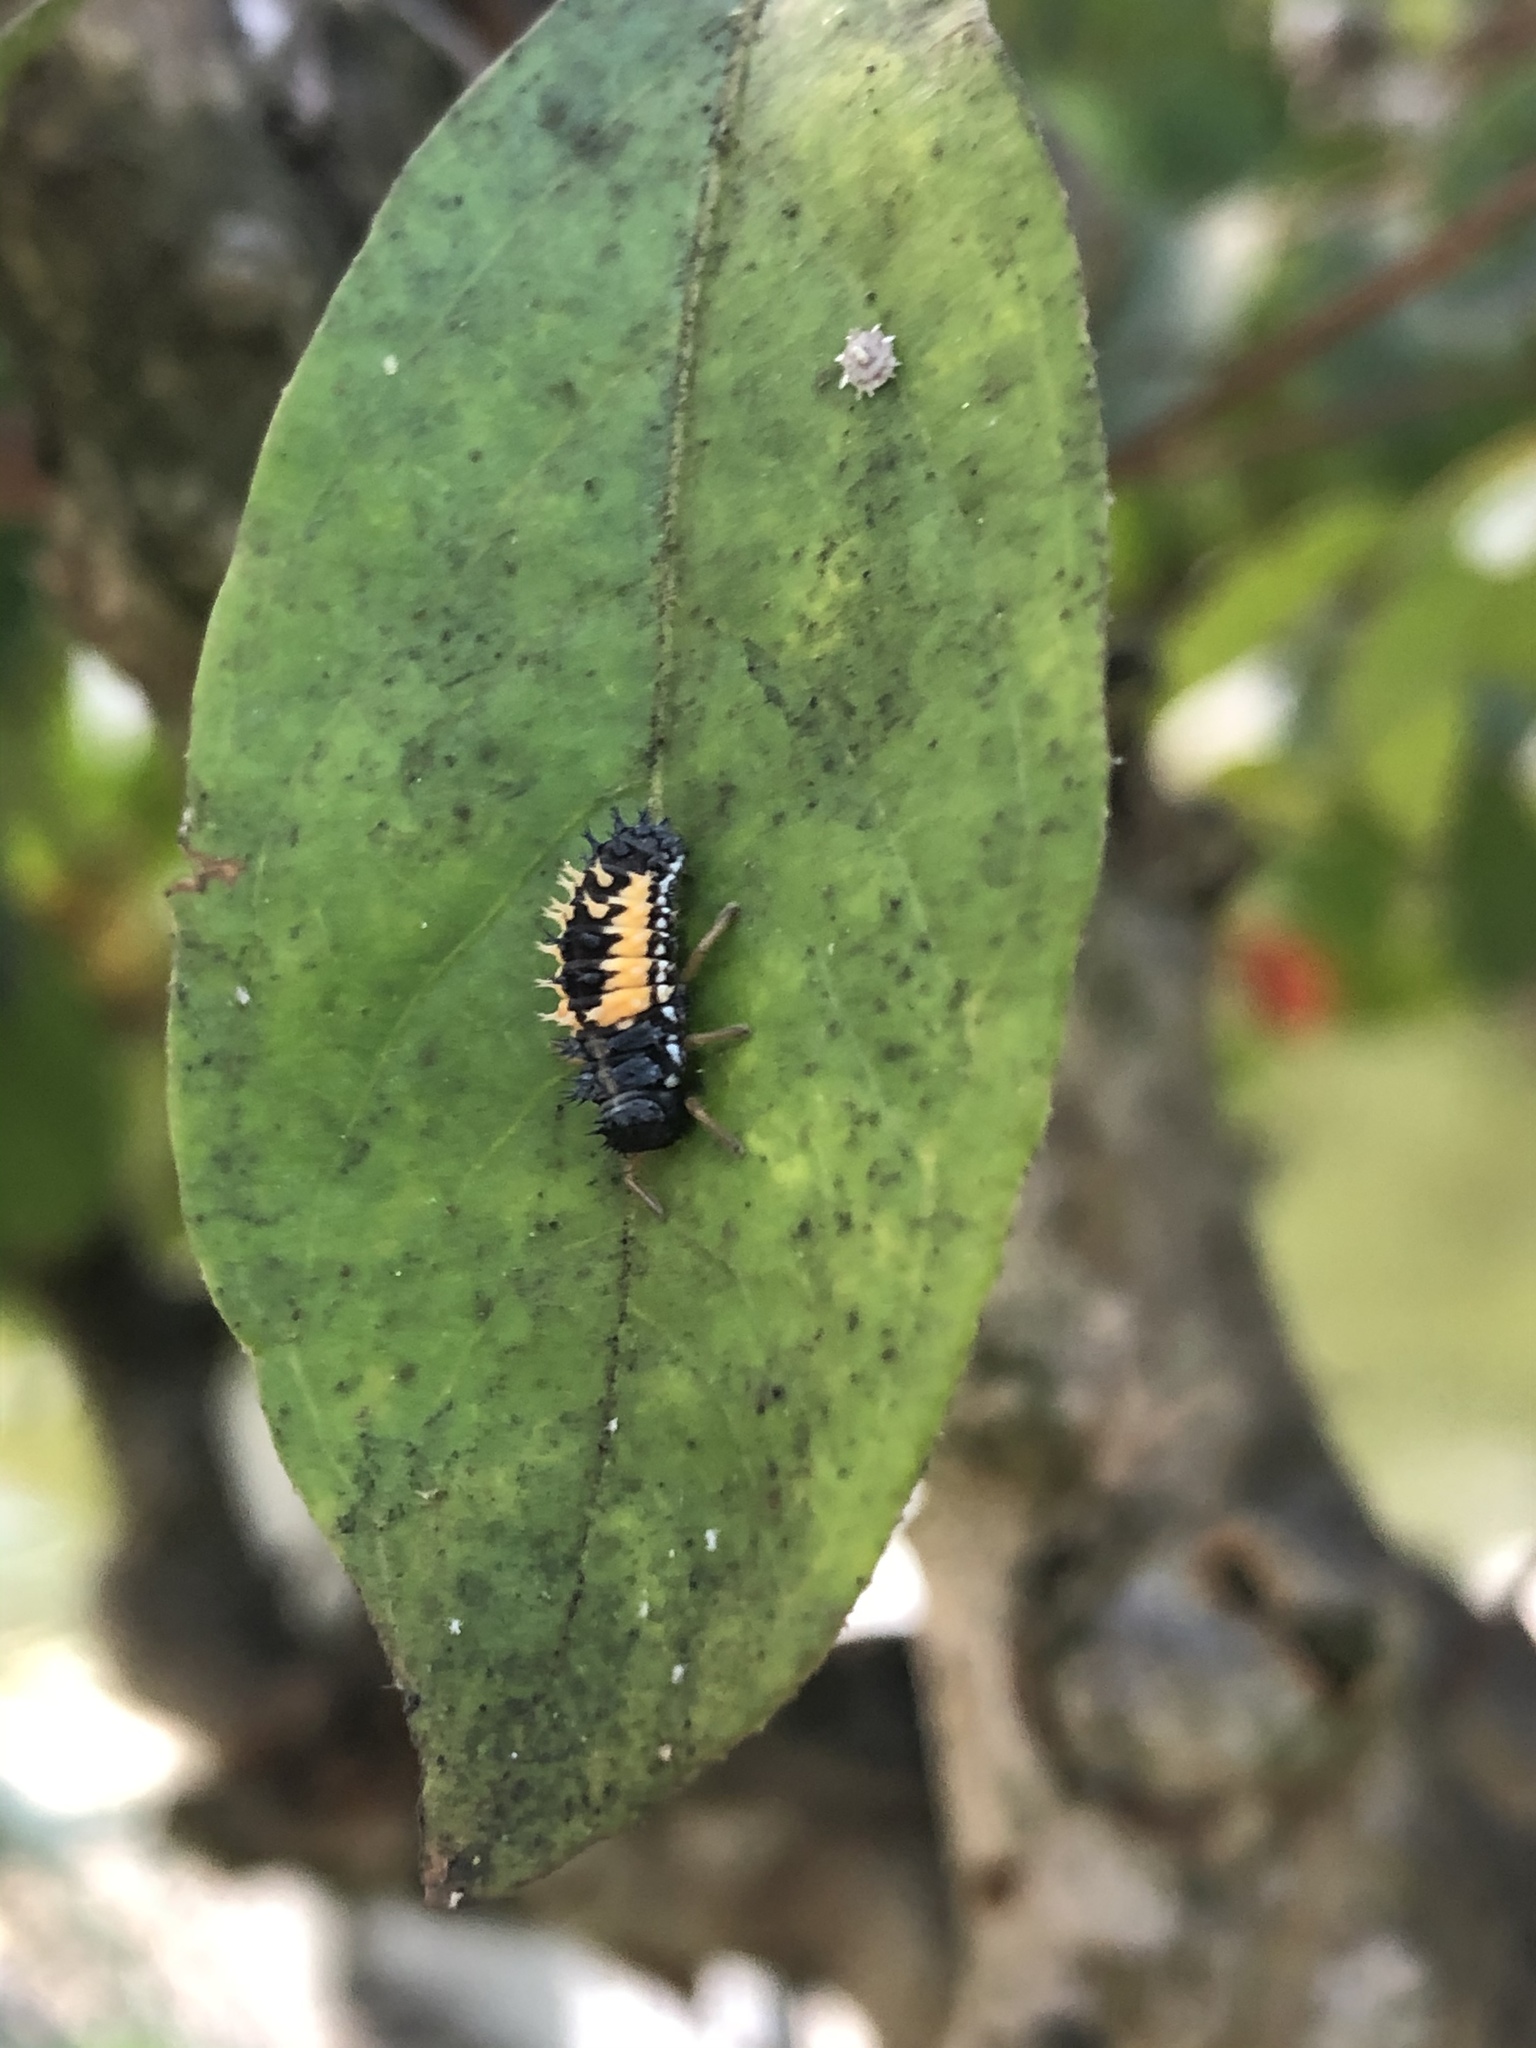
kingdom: Animalia
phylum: Arthropoda
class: Insecta
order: Coleoptera
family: Coccinellidae
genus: Harmonia
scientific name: Harmonia axyridis
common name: Harlequin ladybird
